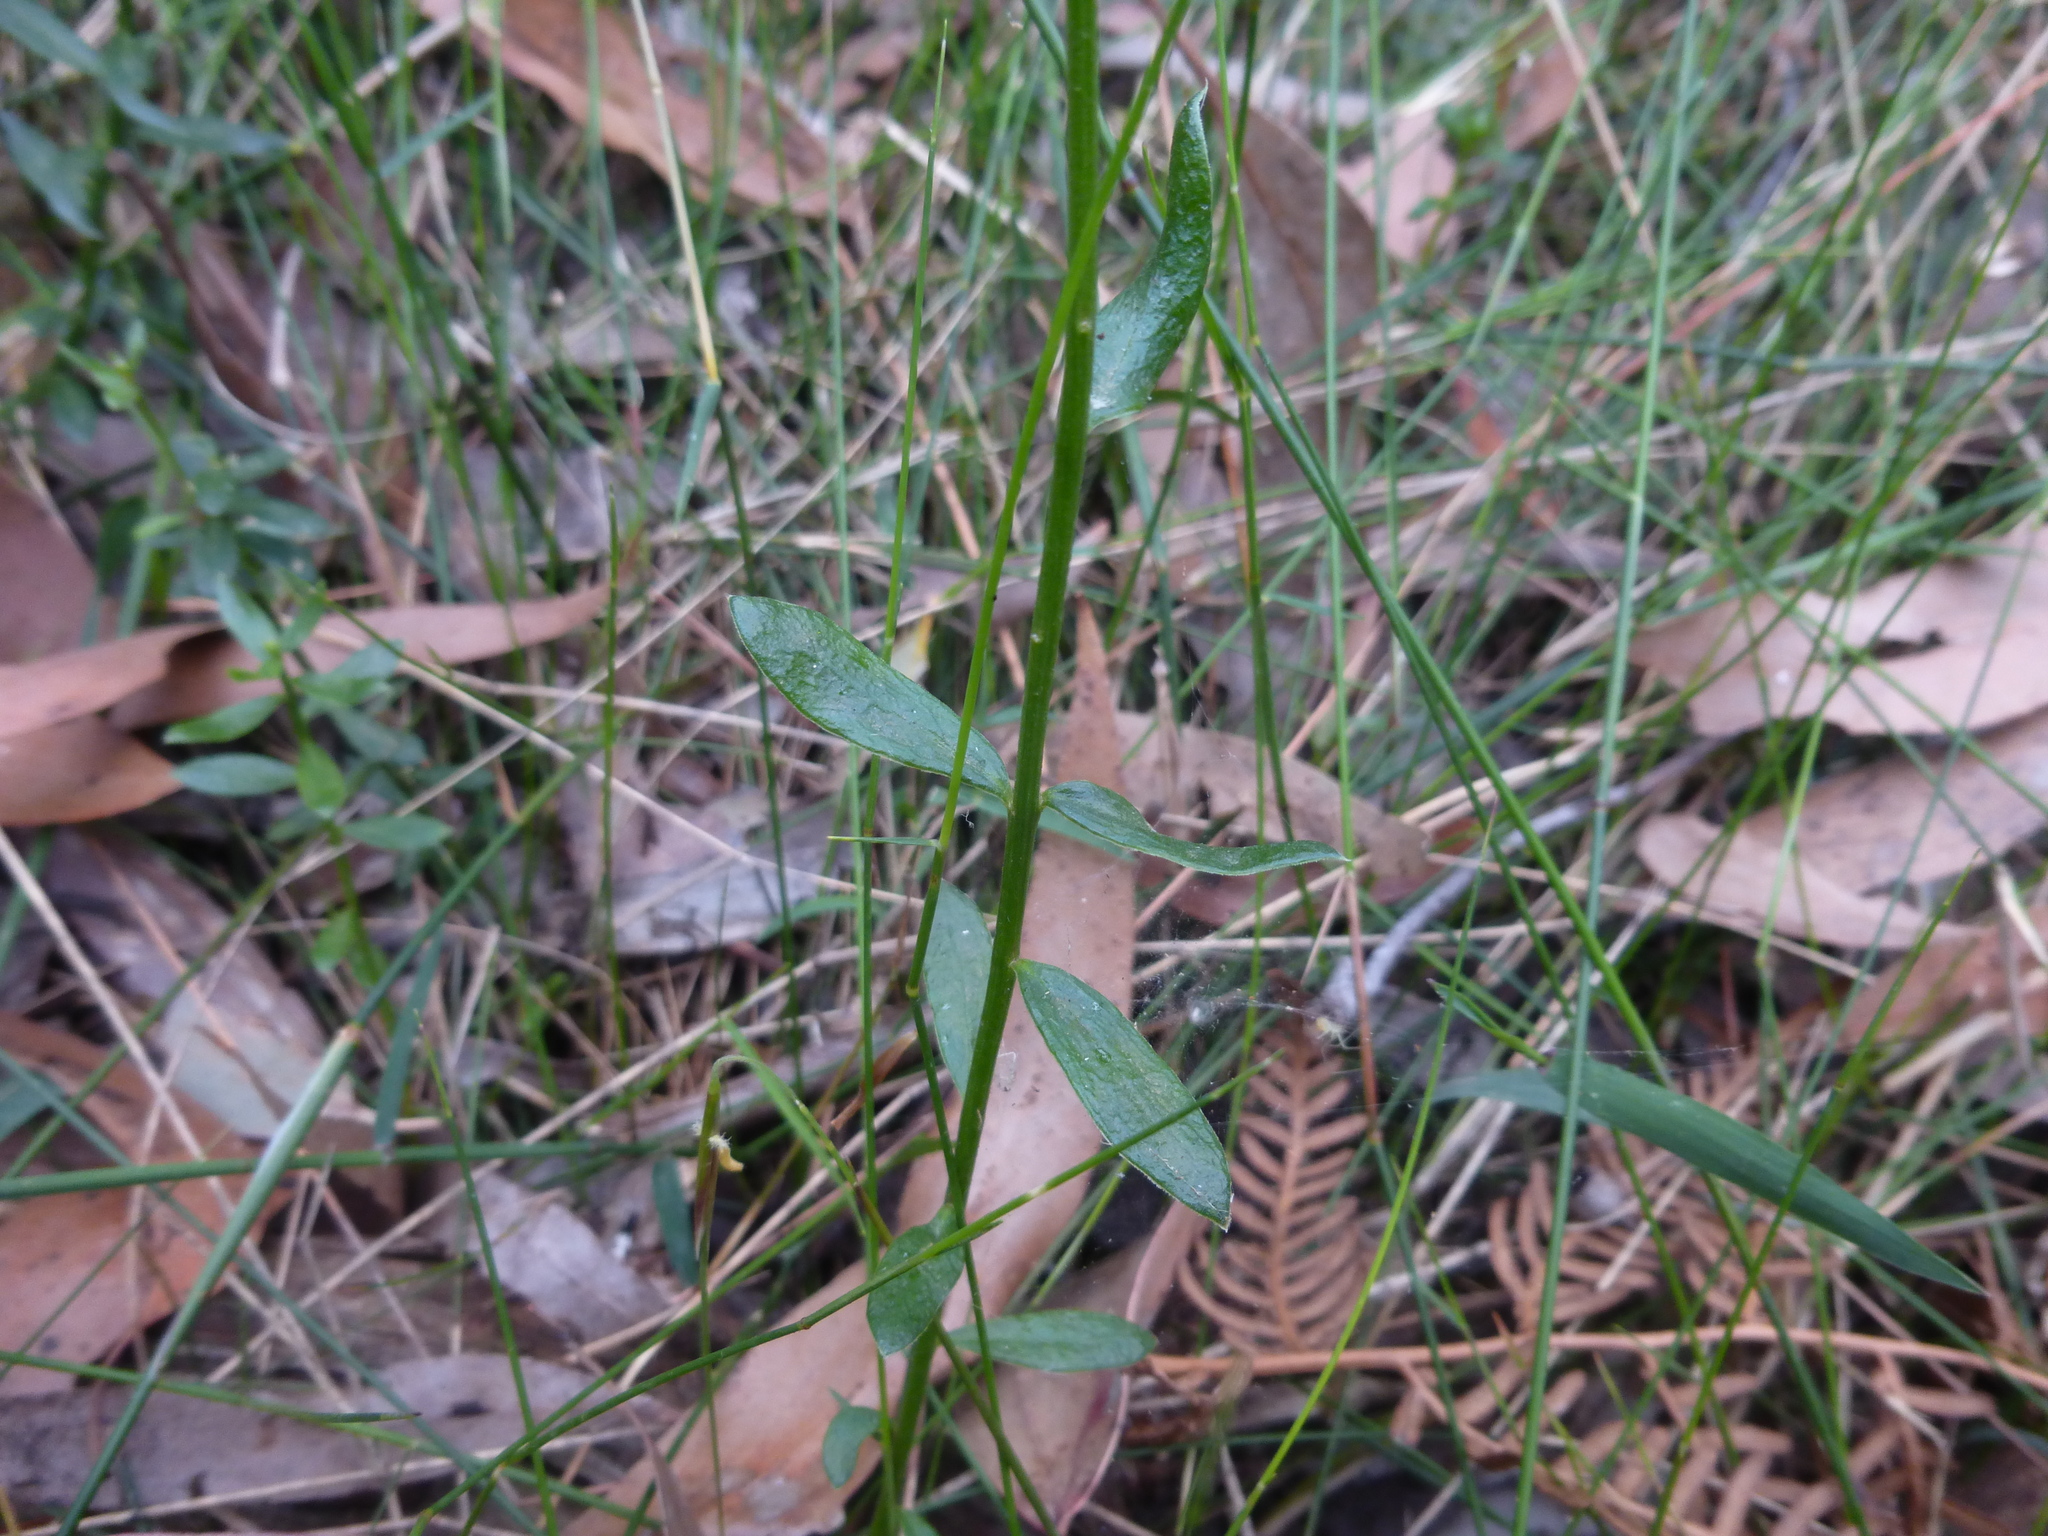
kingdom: Plantae
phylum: Tracheophyta
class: Magnoliopsida
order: Celastrales
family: Celastraceae
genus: Stackhousia
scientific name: Stackhousia monogyna
